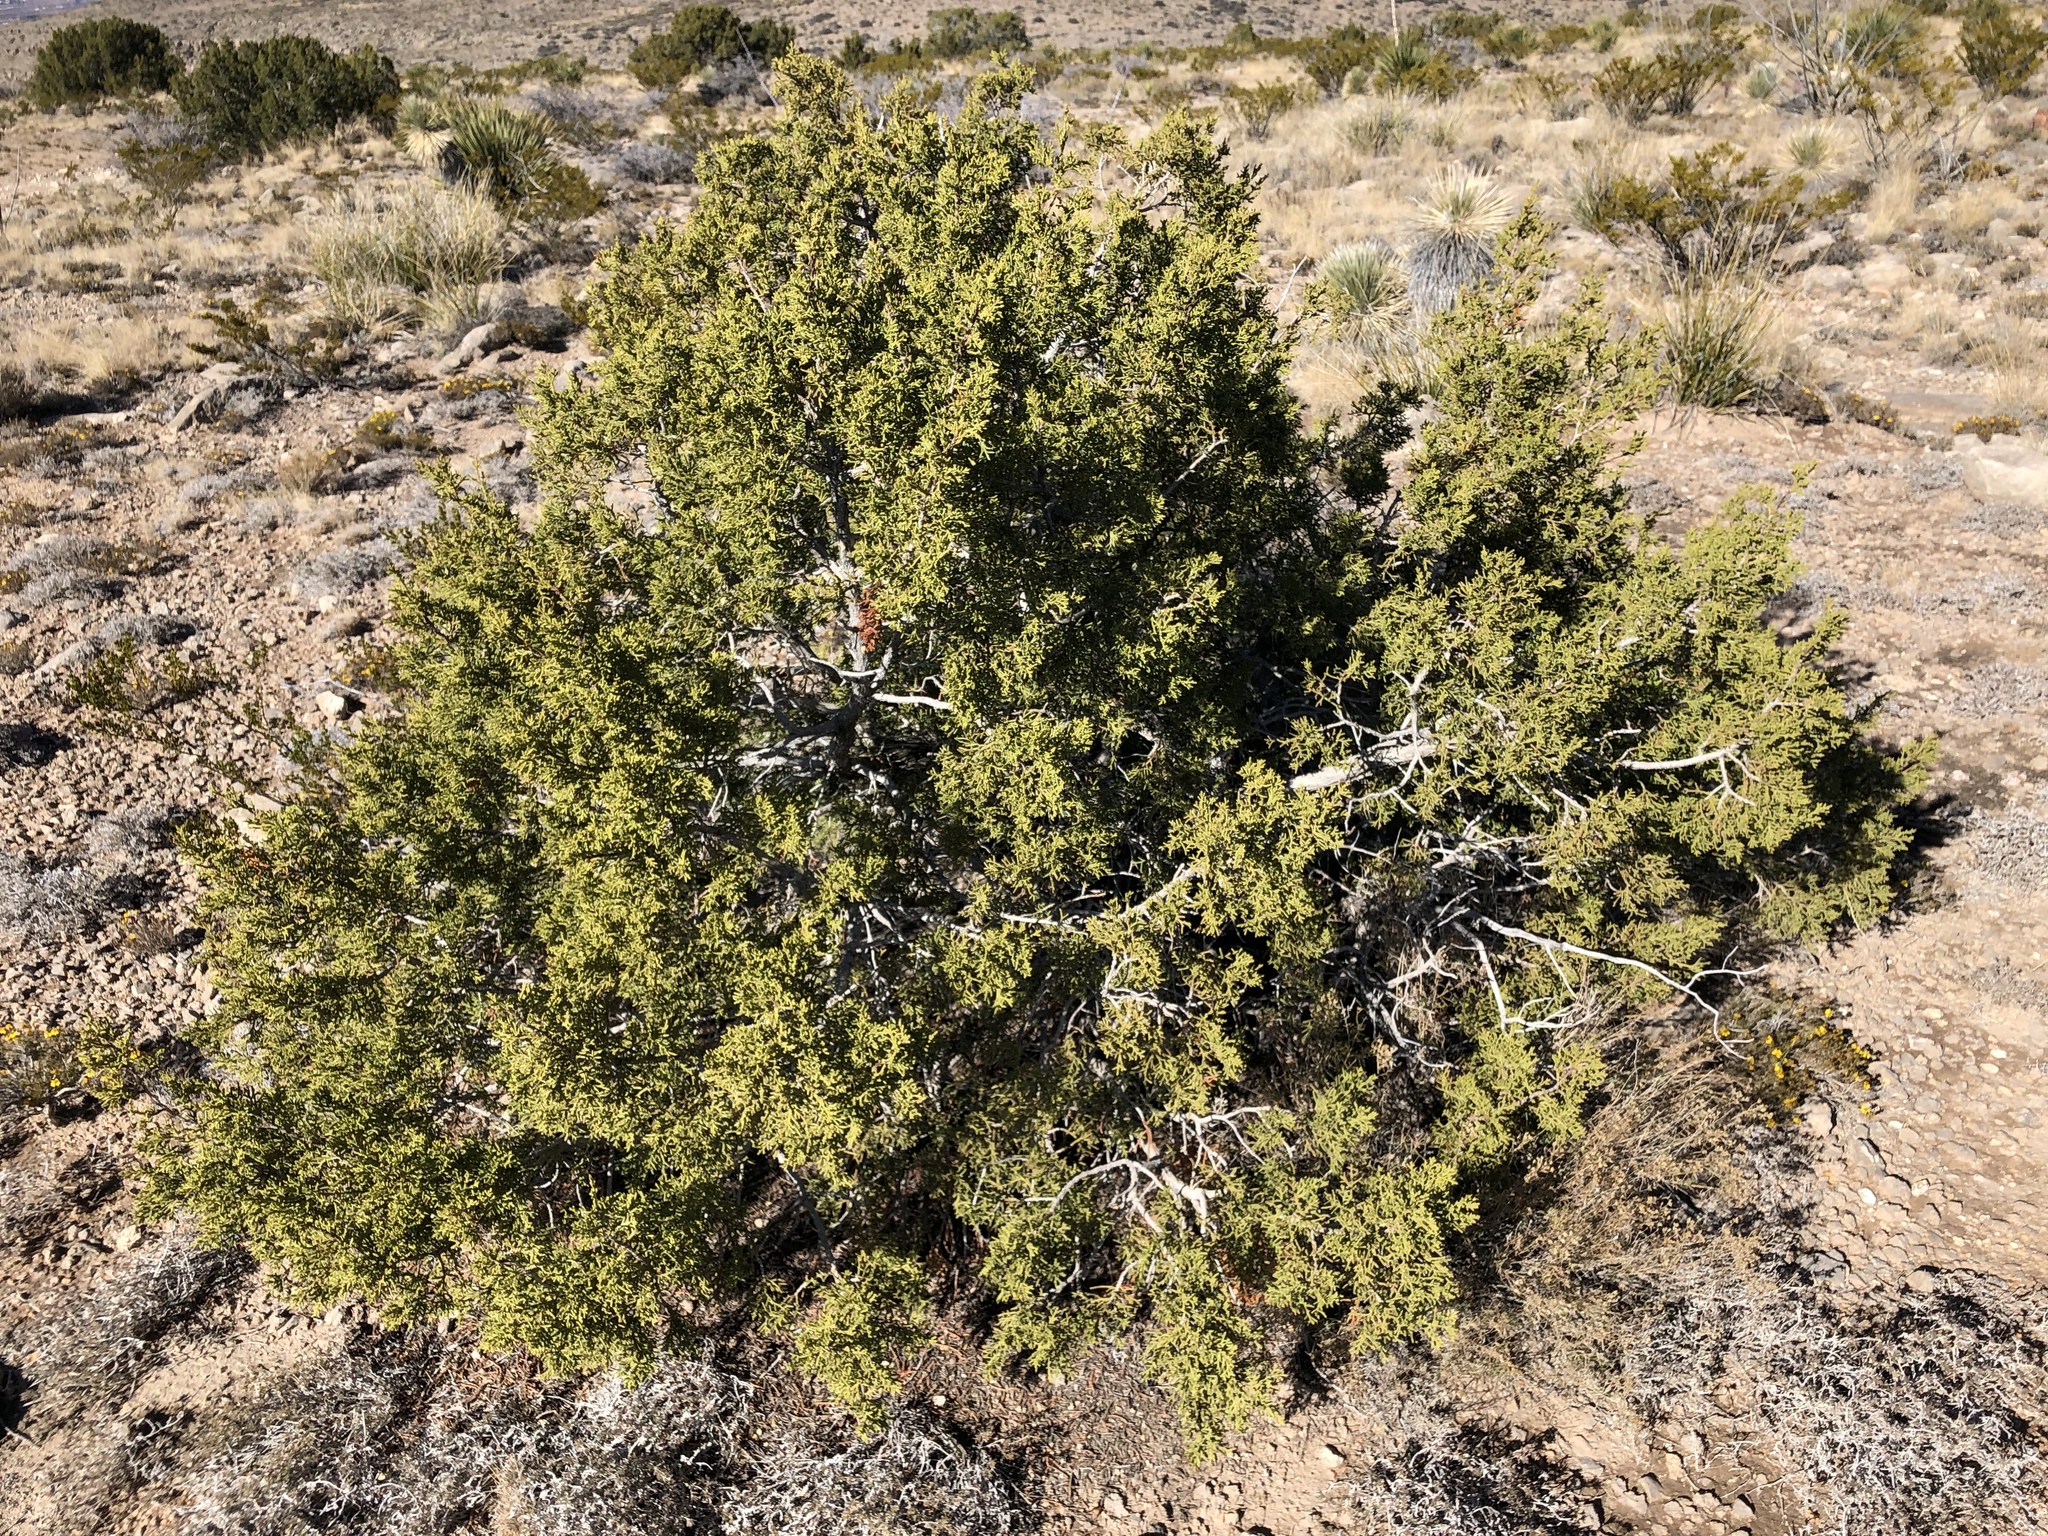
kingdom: Plantae
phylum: Tracheophyta
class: Pinopsida
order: Pinales
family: Cupressaceae
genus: Juniperus
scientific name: Juniperus monosperma
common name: One-seed juniper
